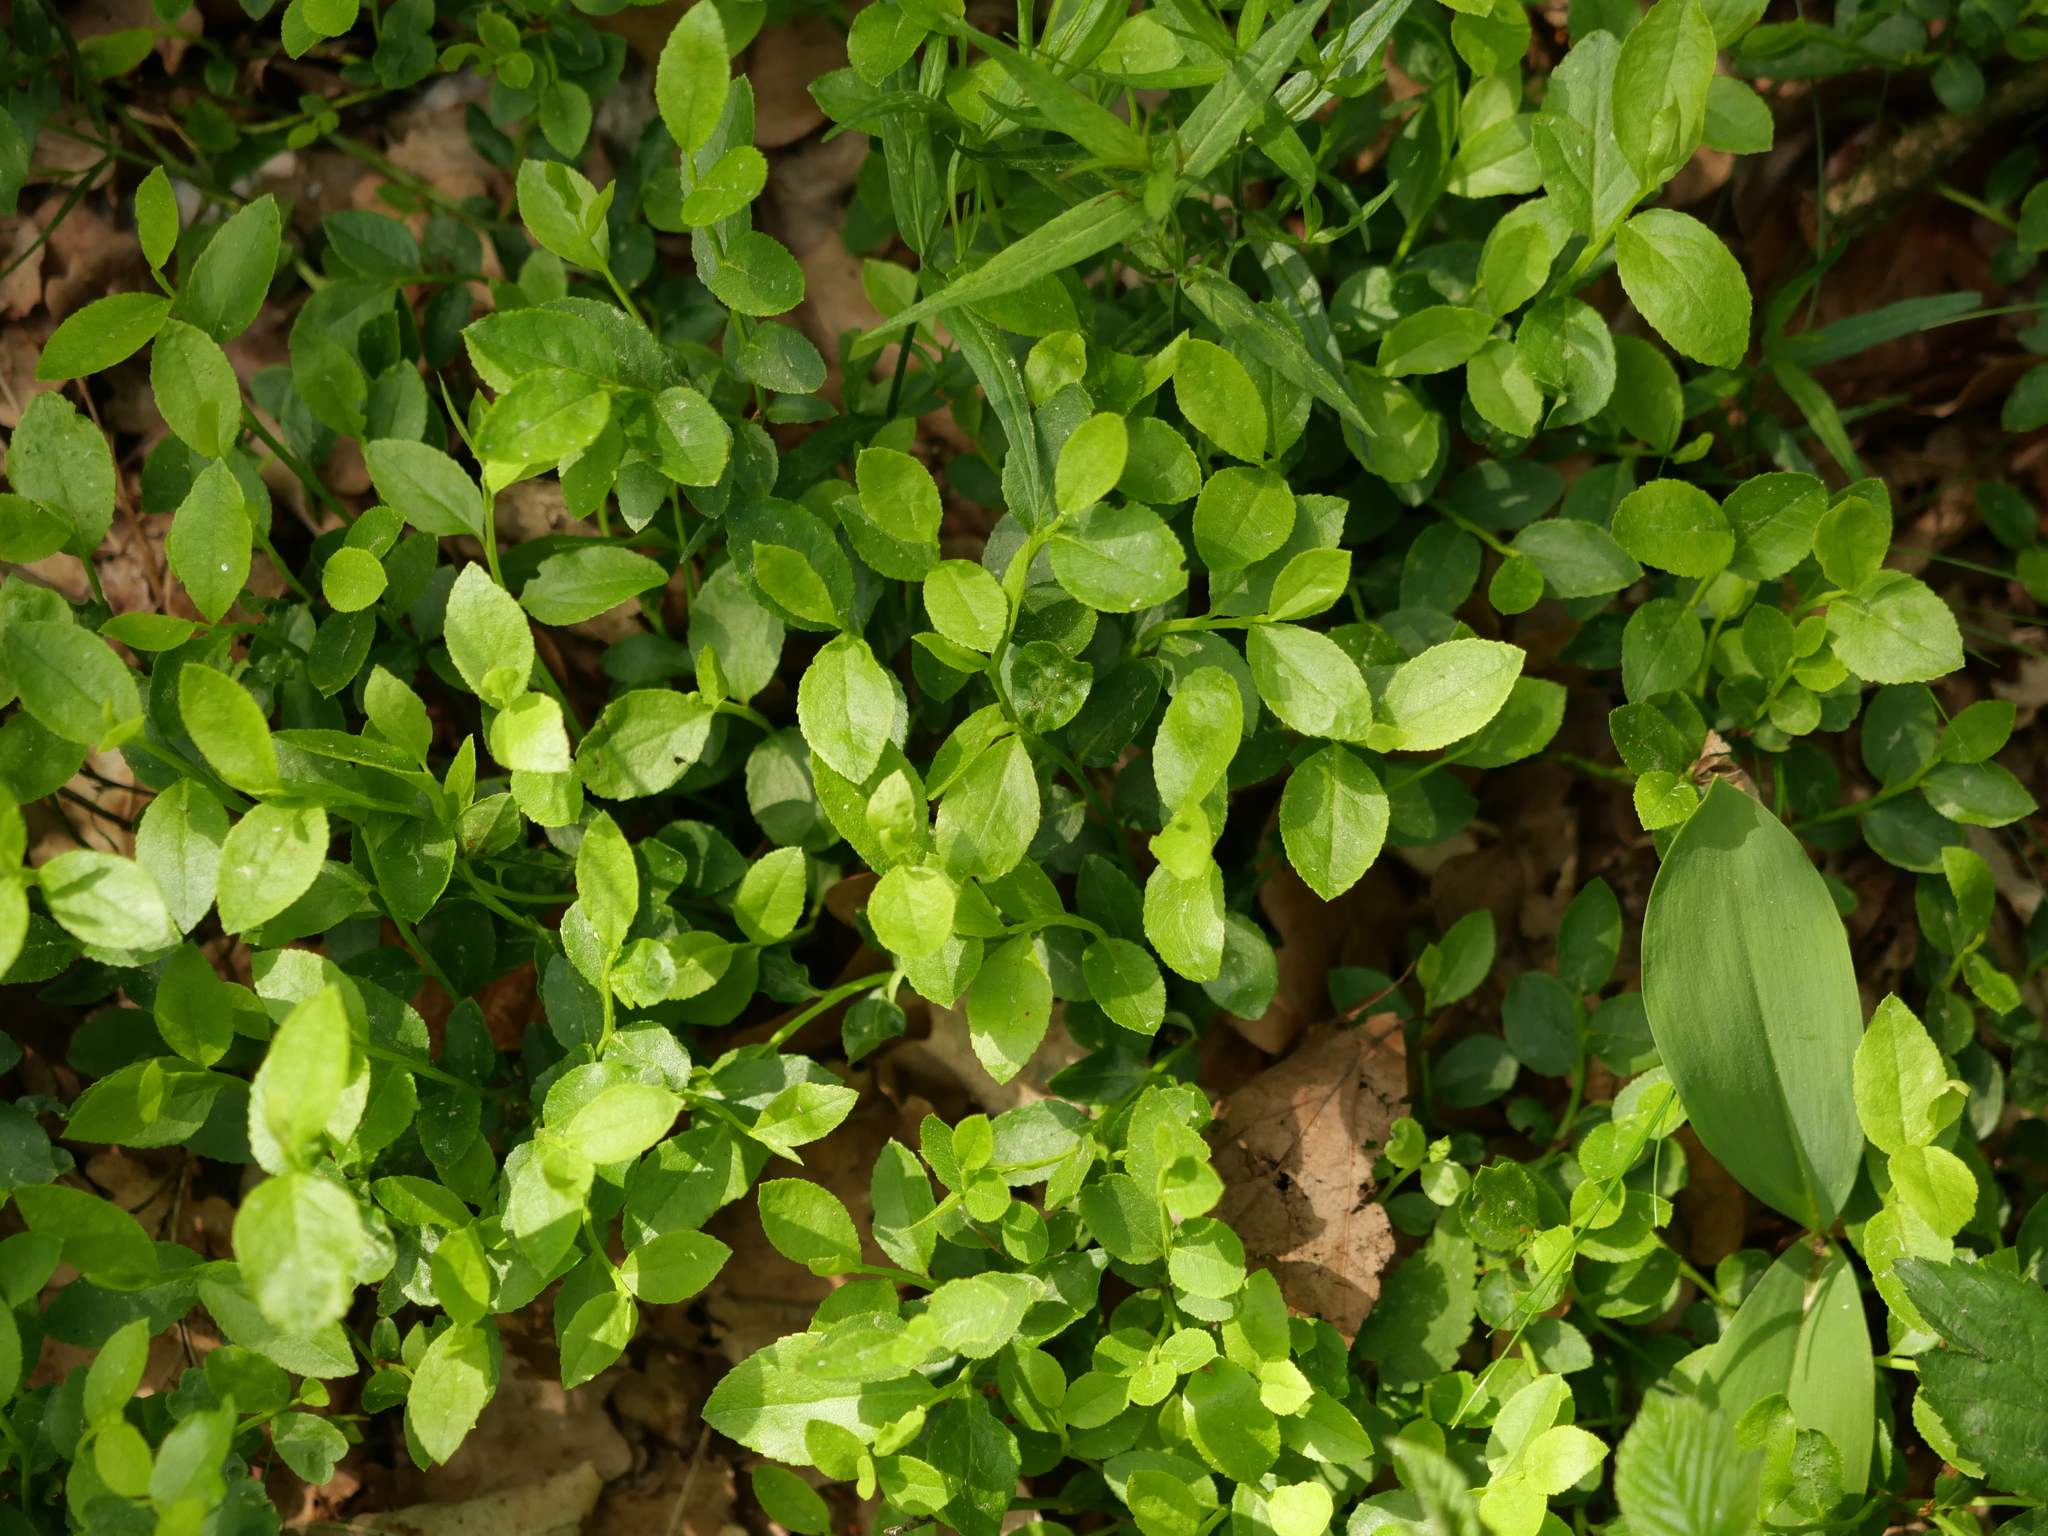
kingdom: Plantae
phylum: Tracheophyta
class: Magnoliopsida
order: Ericales
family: Ericaceae
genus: Vaccinium
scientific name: Vaccinium myrtillus
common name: Bilberry
